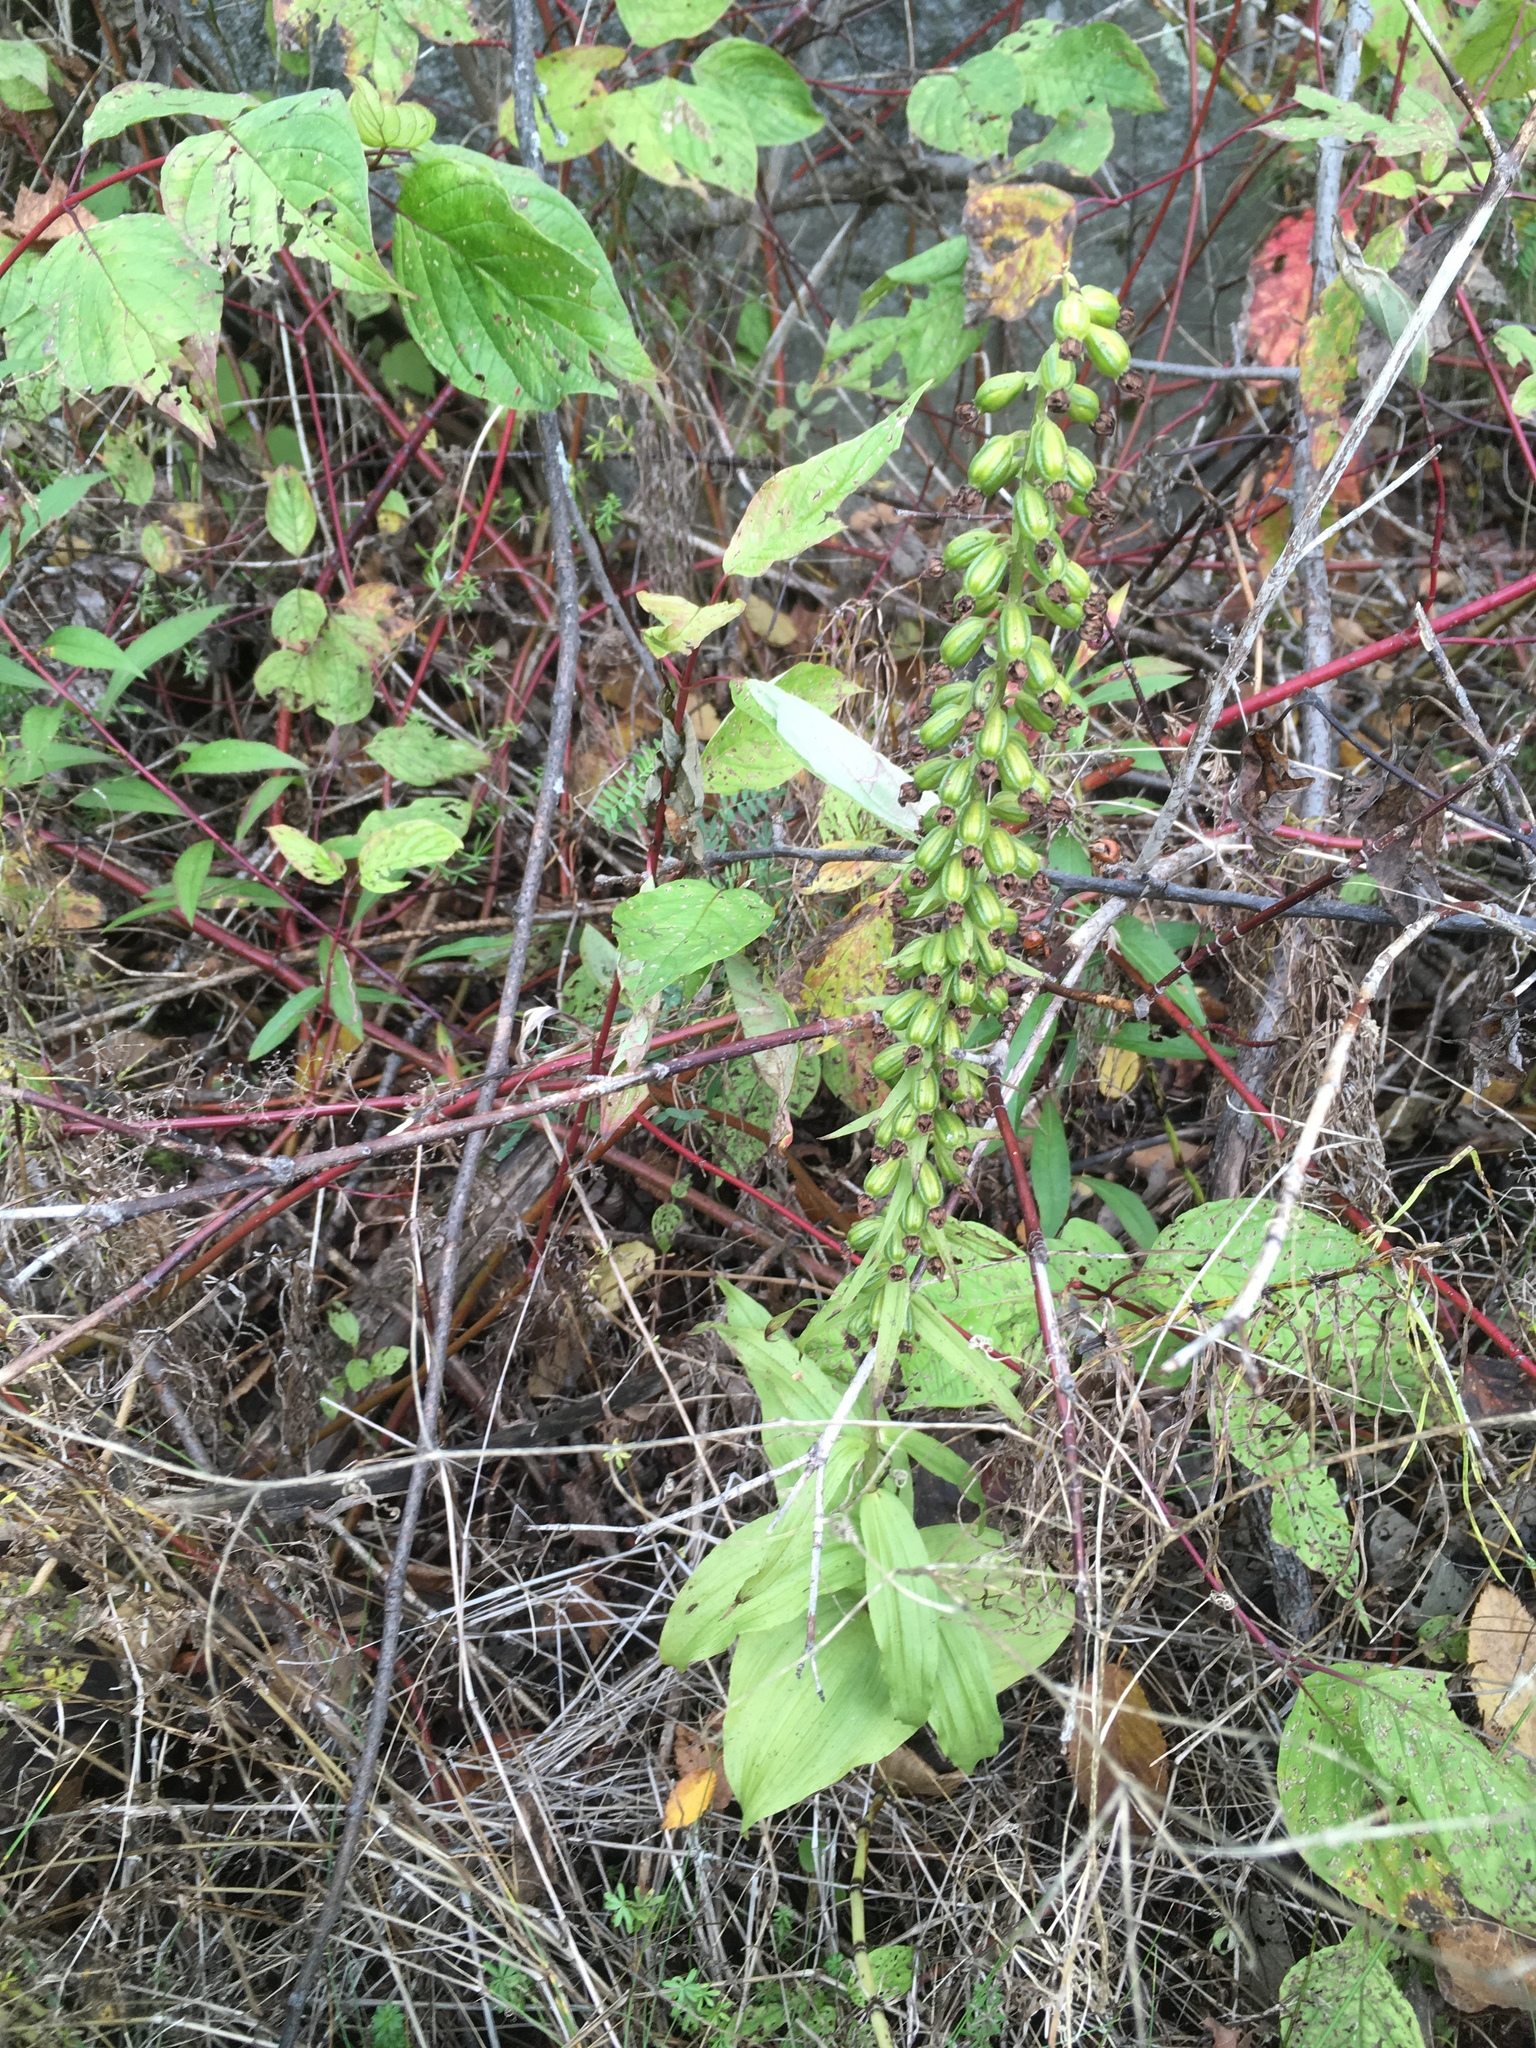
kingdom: Plantae
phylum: Tracheophyta
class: Liliopsida
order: Asparagales
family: Orchidaceae
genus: Epipactis
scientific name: Epipactis helleborine
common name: Broad-leaved helleborine
